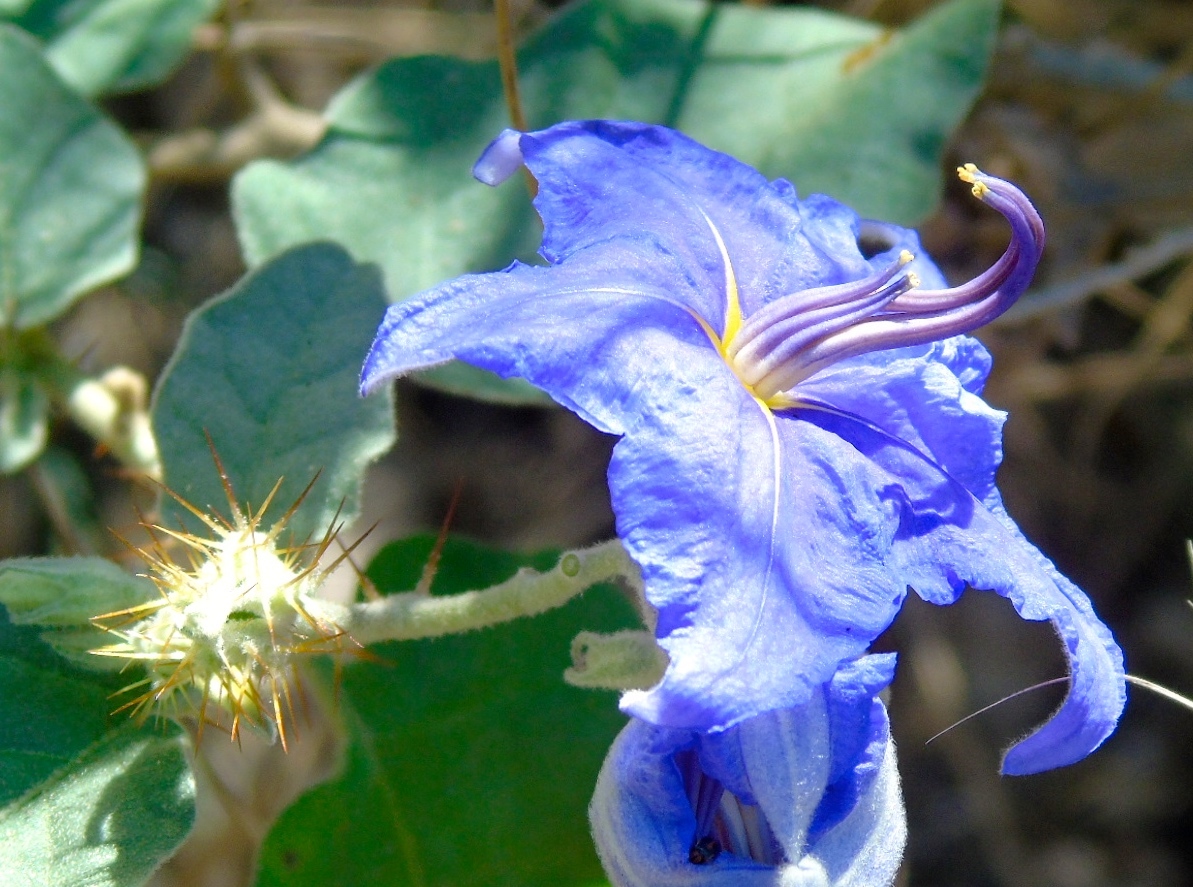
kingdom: Plantae
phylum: Tracheophyta
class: Magnoliopsida
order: Solanales
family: Solanaceae
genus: Solanum
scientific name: Solanum houstonii
